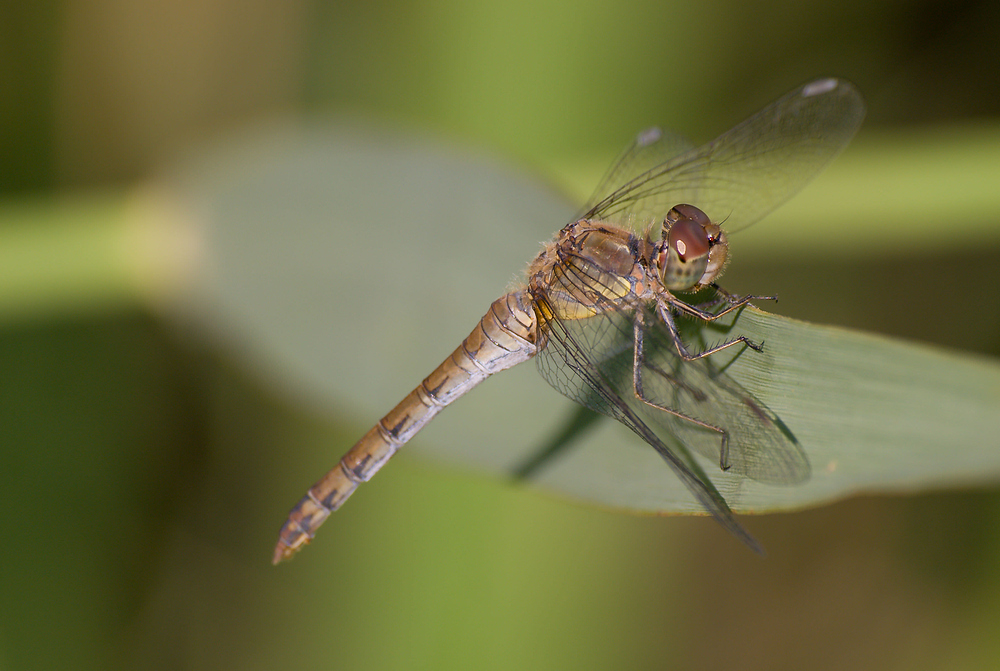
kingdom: Animalia
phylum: Arthropoda
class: Insecta
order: Odonata
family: Libellulidae
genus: Sympetrum
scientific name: Sympetrum striolatum
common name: Common darter
